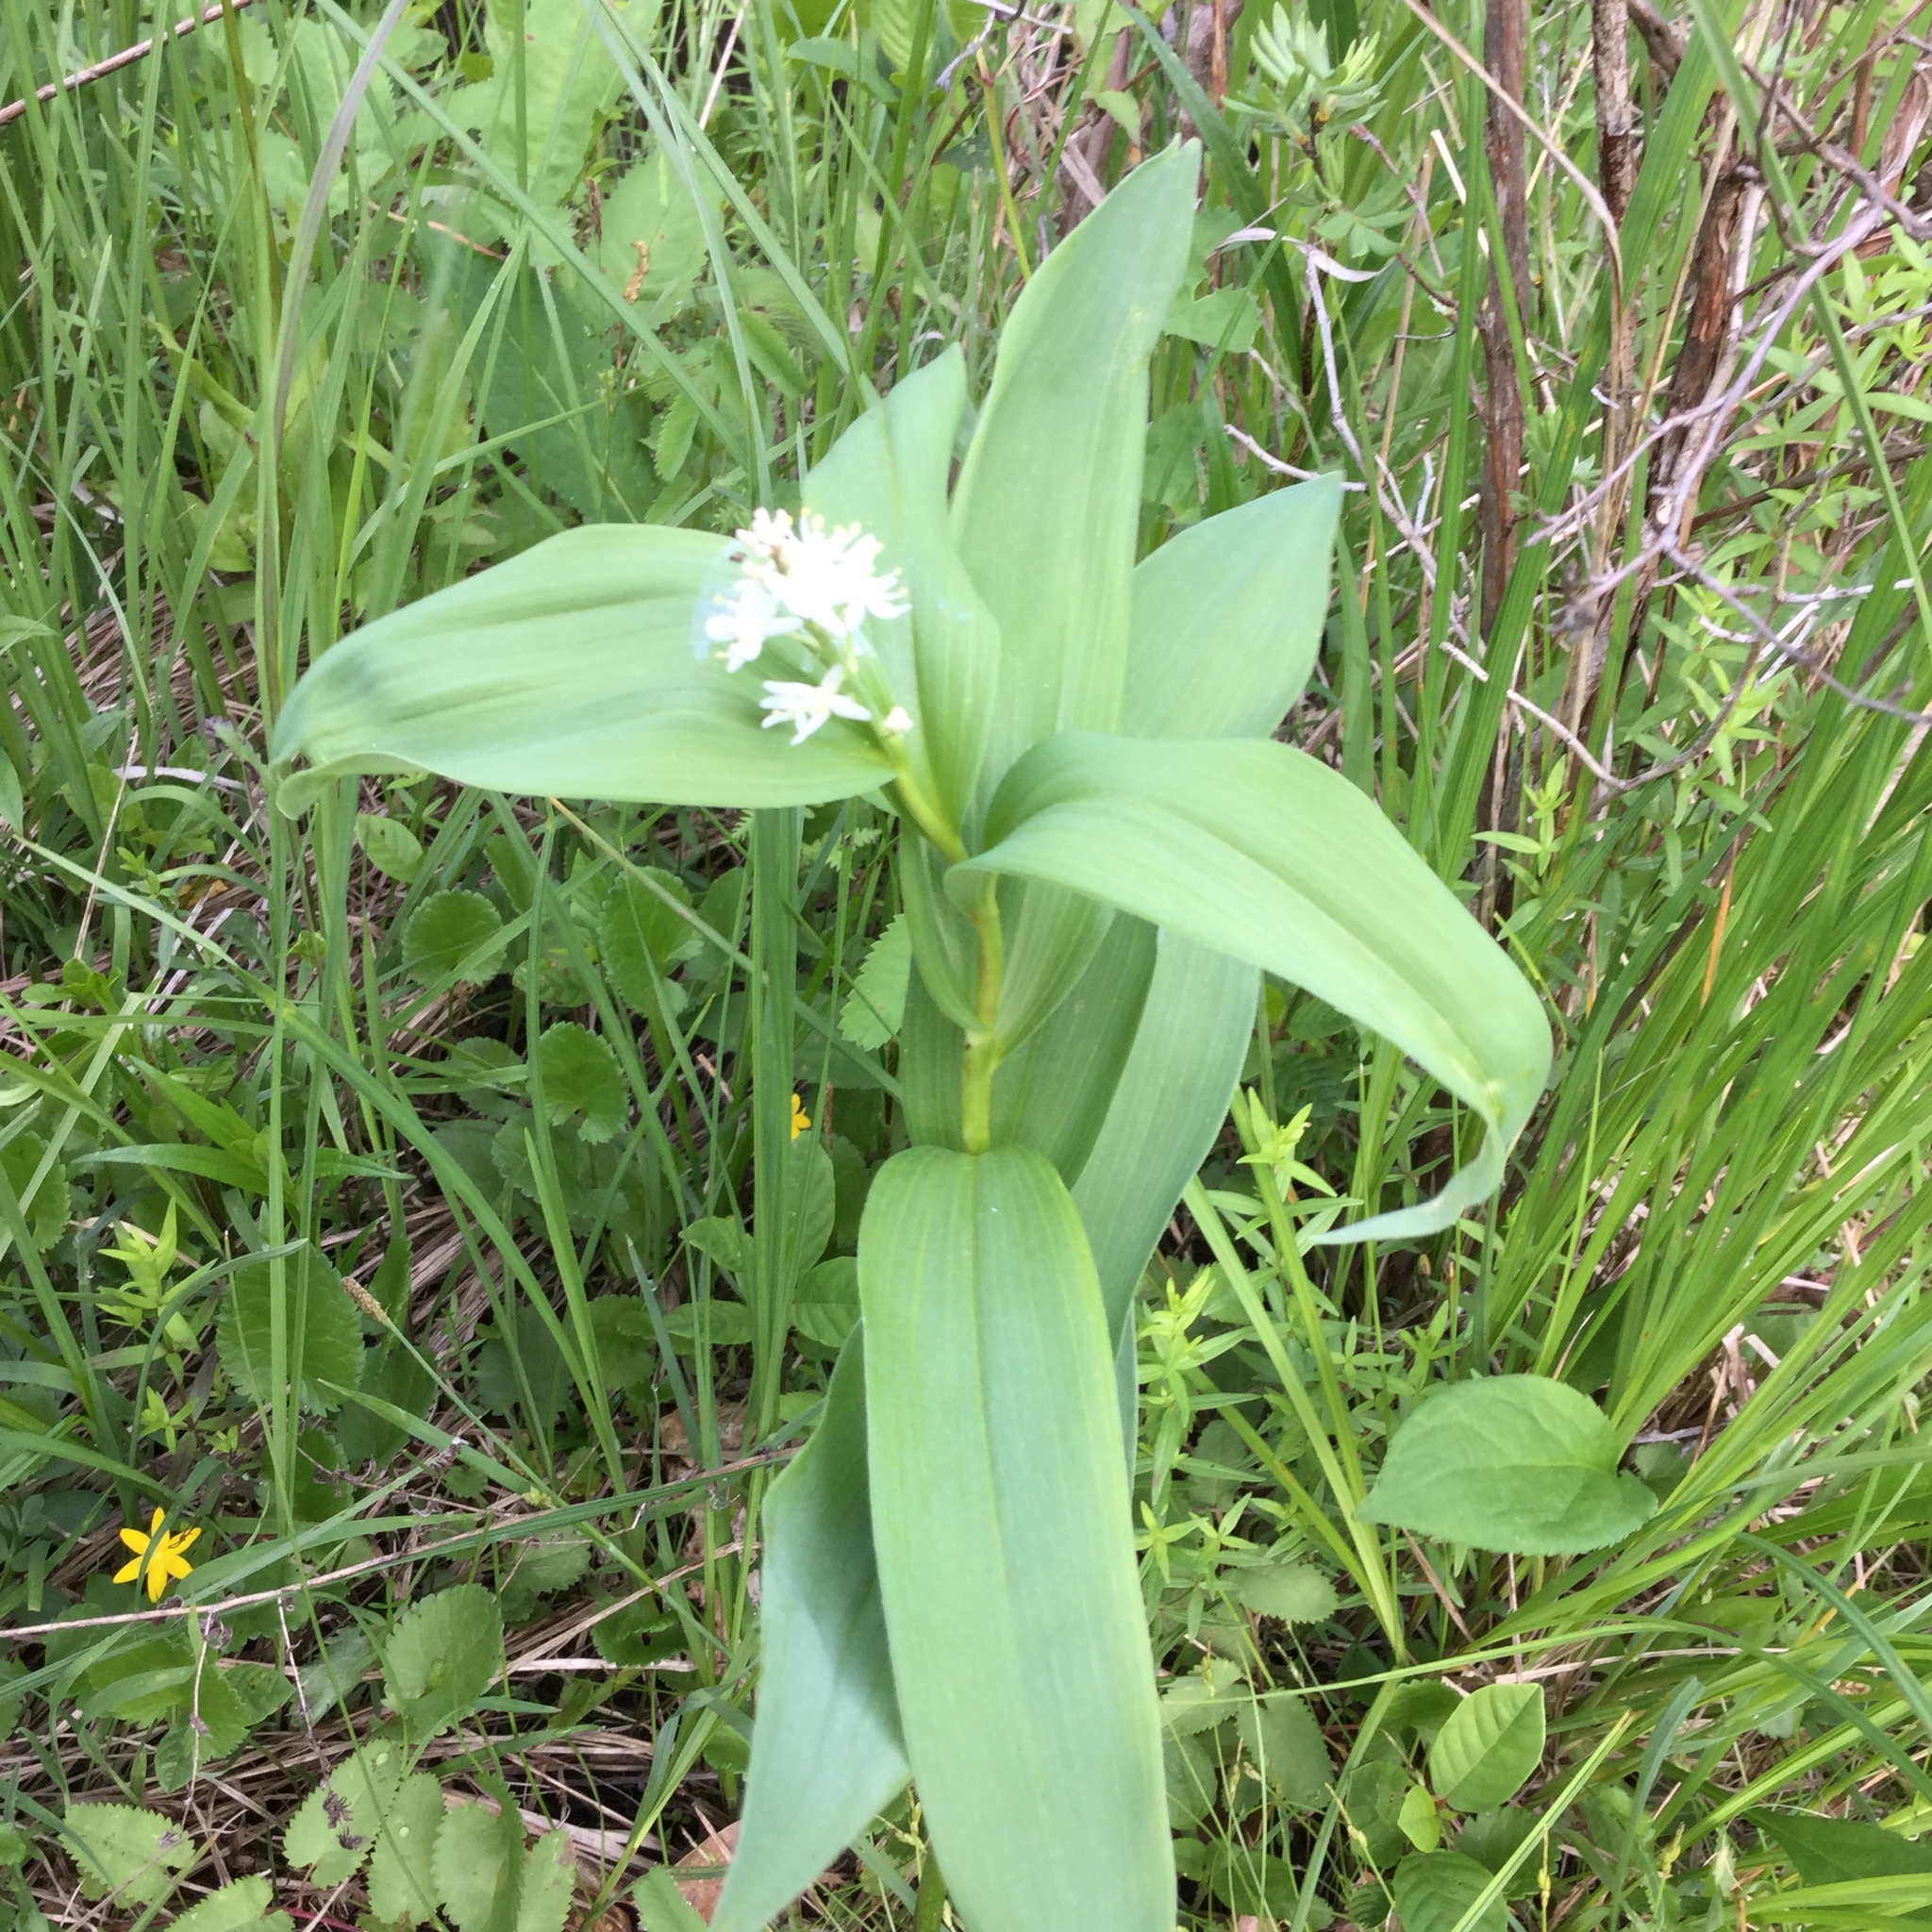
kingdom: Plantae
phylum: Tracheophyta
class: Liliopsida
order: Asparagales
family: Asparagaceae
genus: Maianthemum
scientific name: Maianthemum stellatum
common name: Little false solomon's seal
